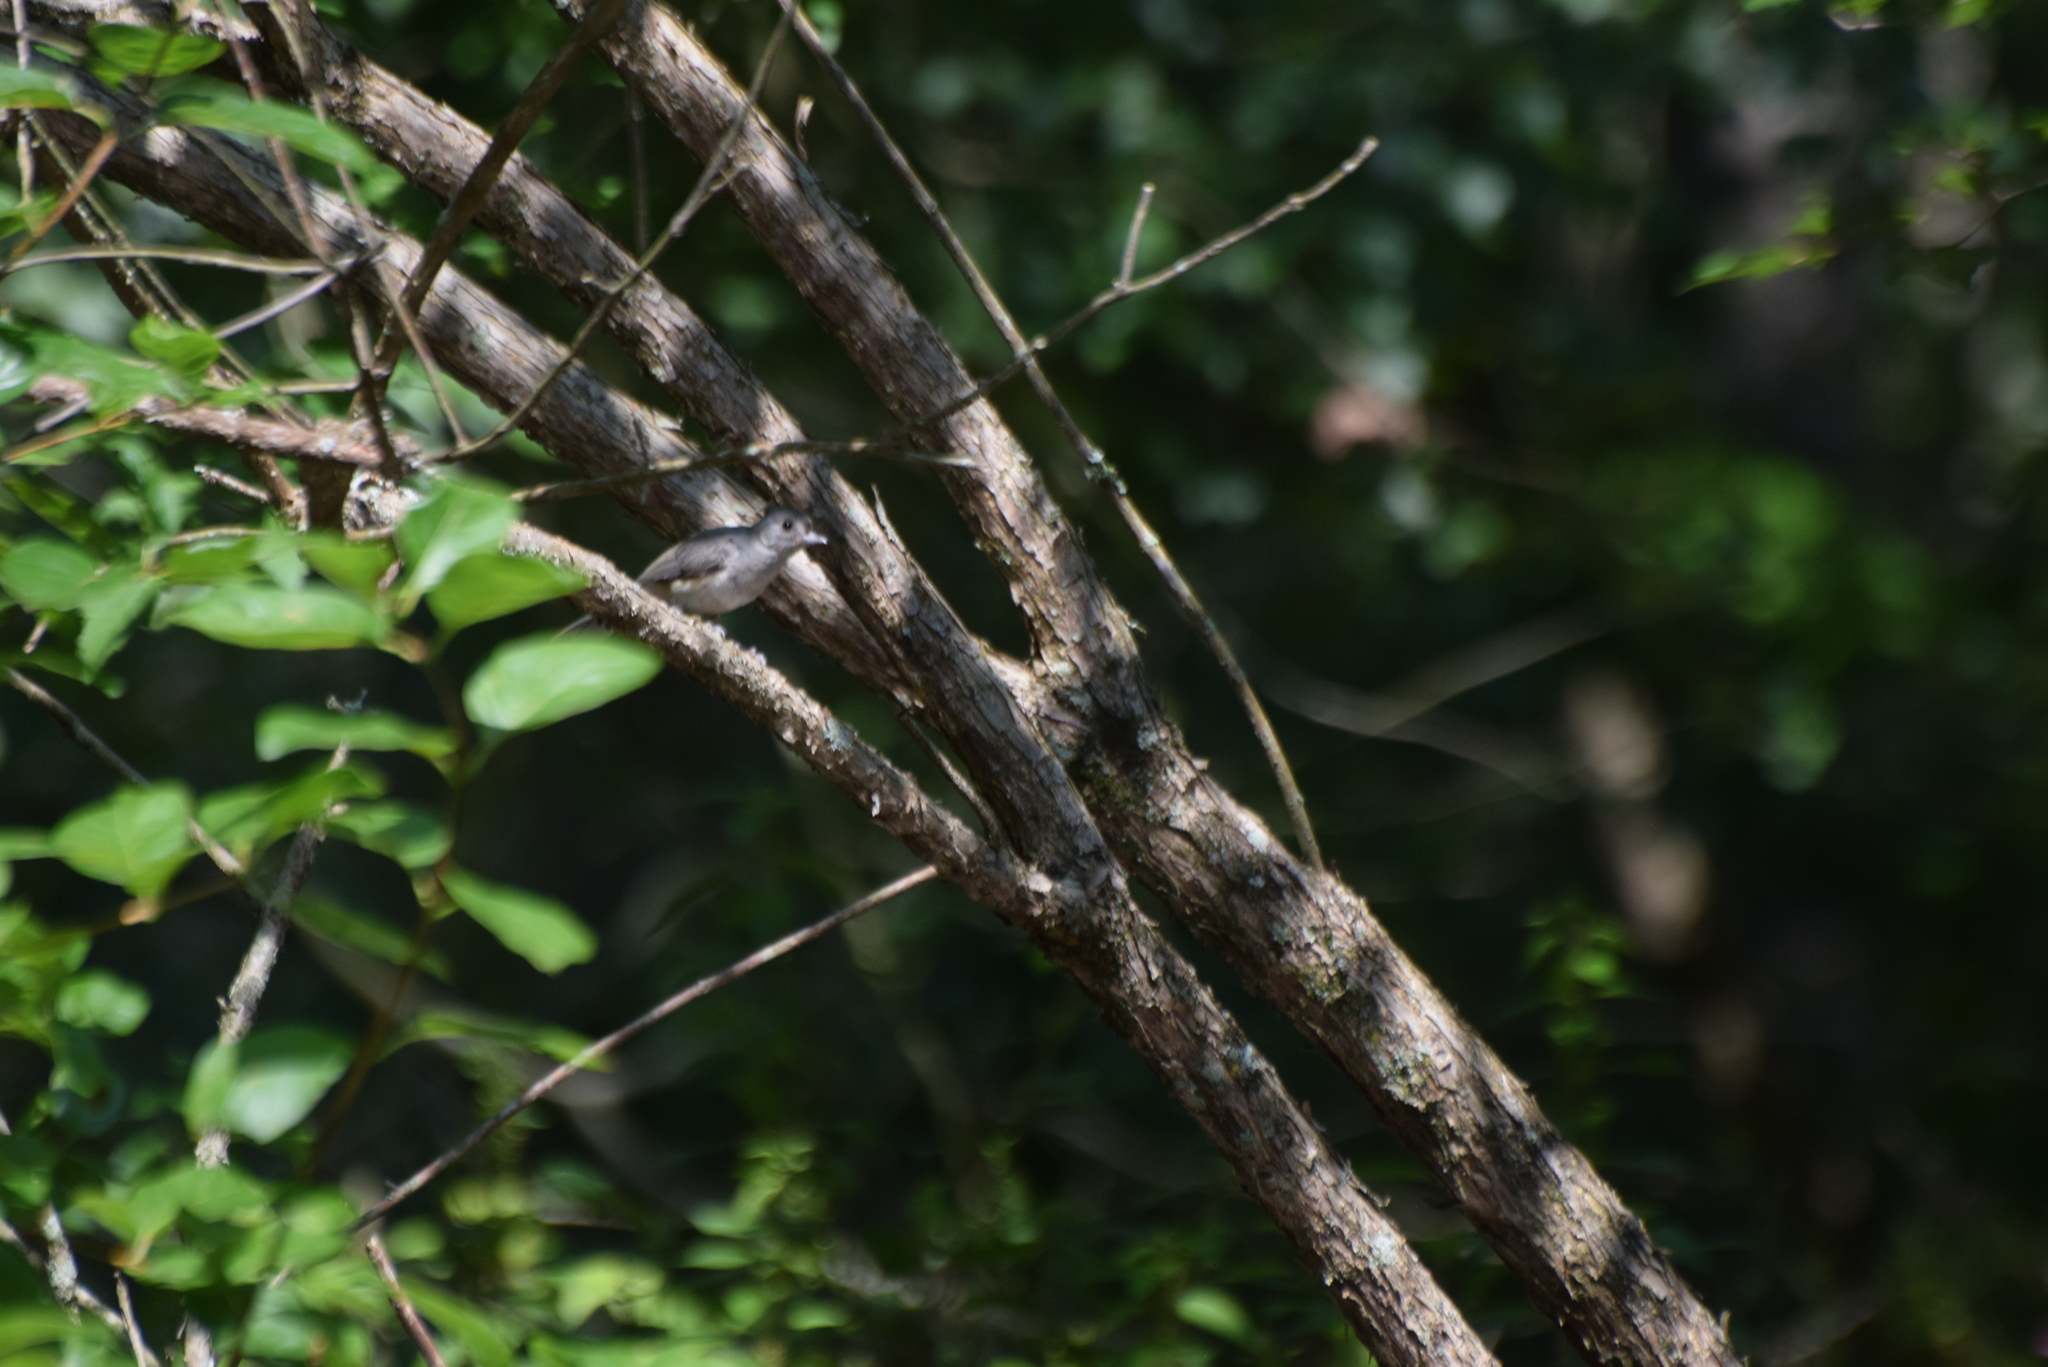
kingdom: Animalia
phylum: Chordata
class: Aves
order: Passeriformes
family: Paridae
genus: Baeolophus
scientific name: Baeolophus bicolor
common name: Tufted titmouse
